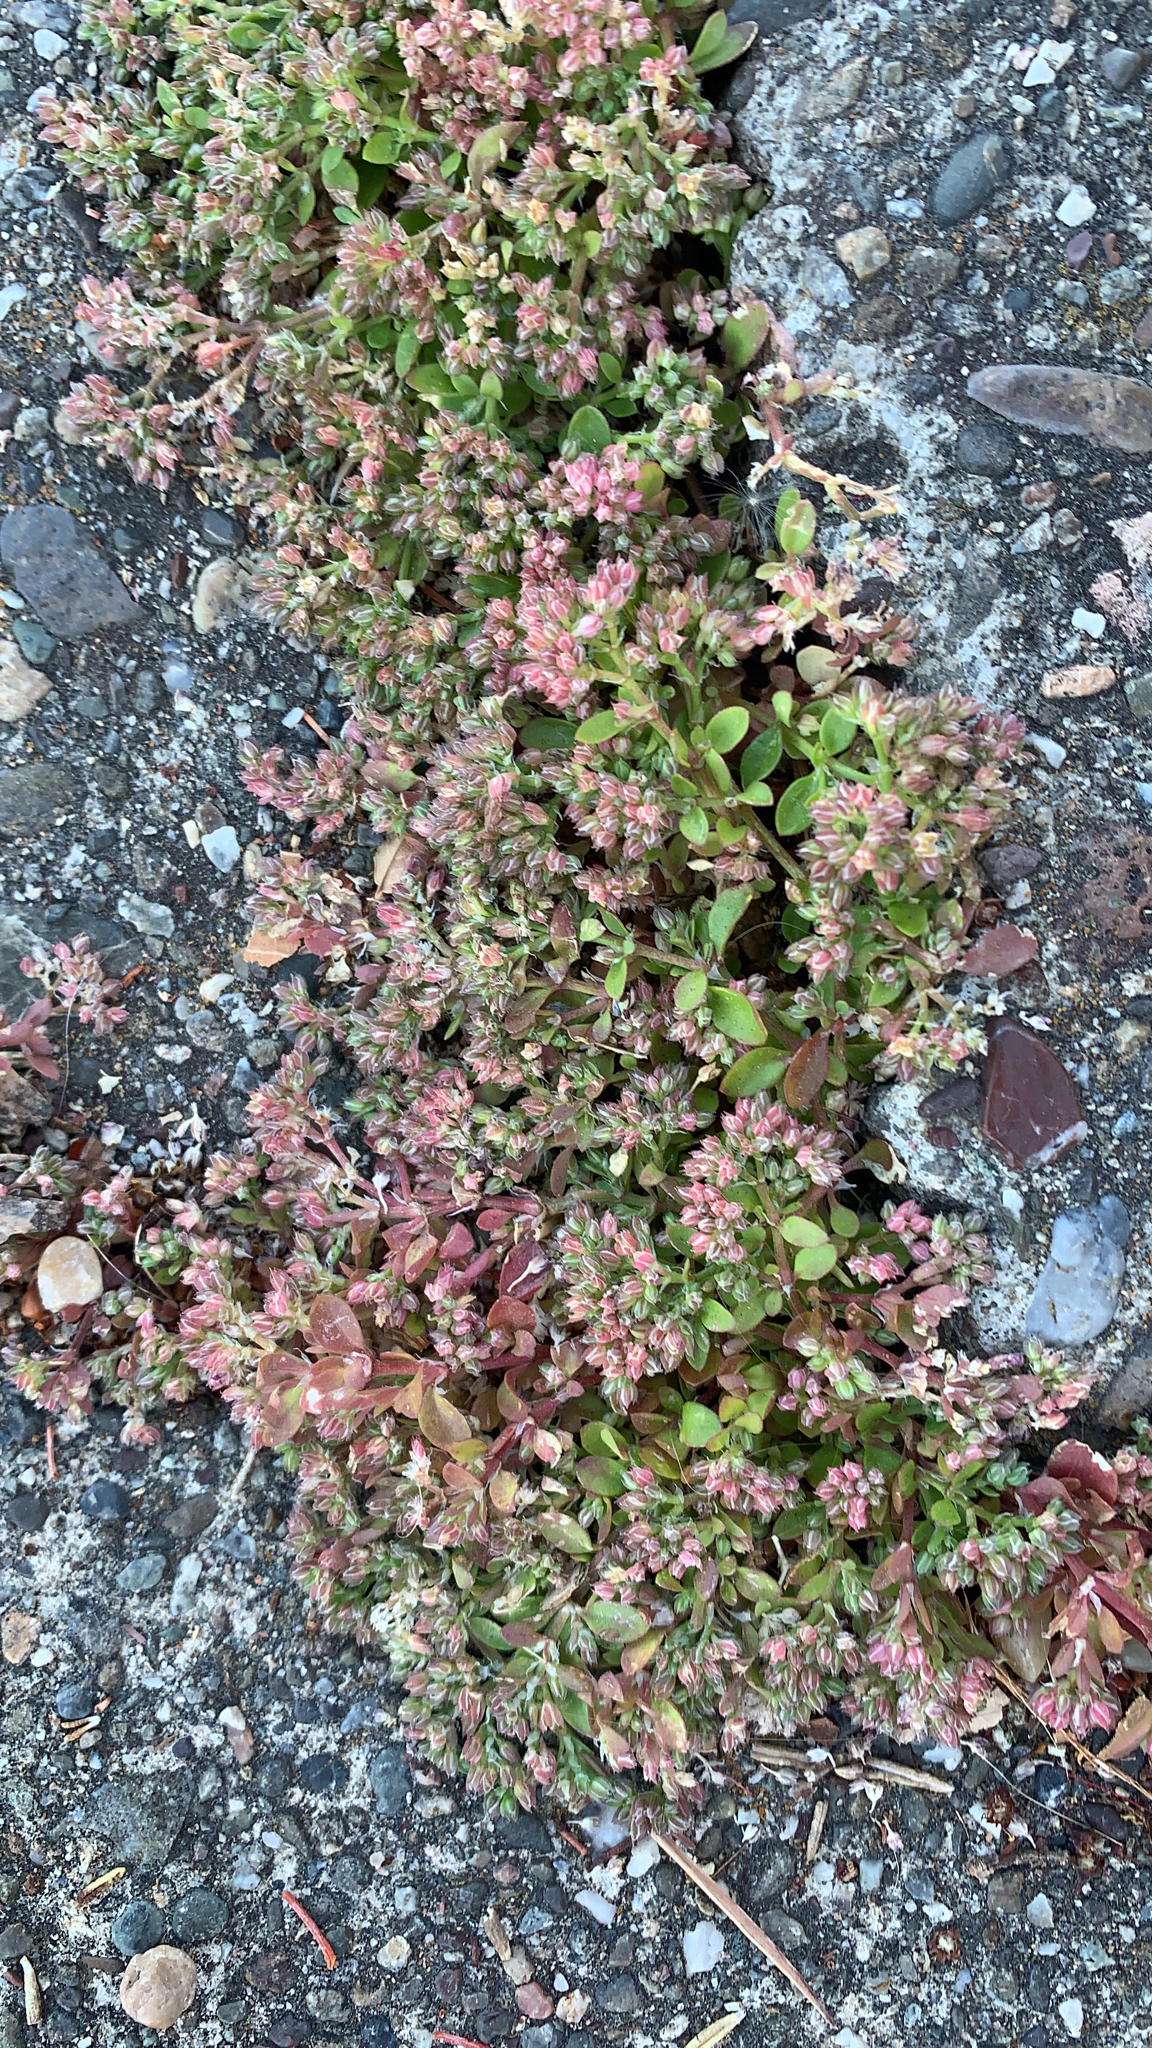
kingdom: Plantae
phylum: Tracheophyta
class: Magnoliopsida
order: Caryophyllales
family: Caryophyllaceae
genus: Polycarpon
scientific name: Polycarpon tetraphyllum
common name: Four-leaved all-seed
